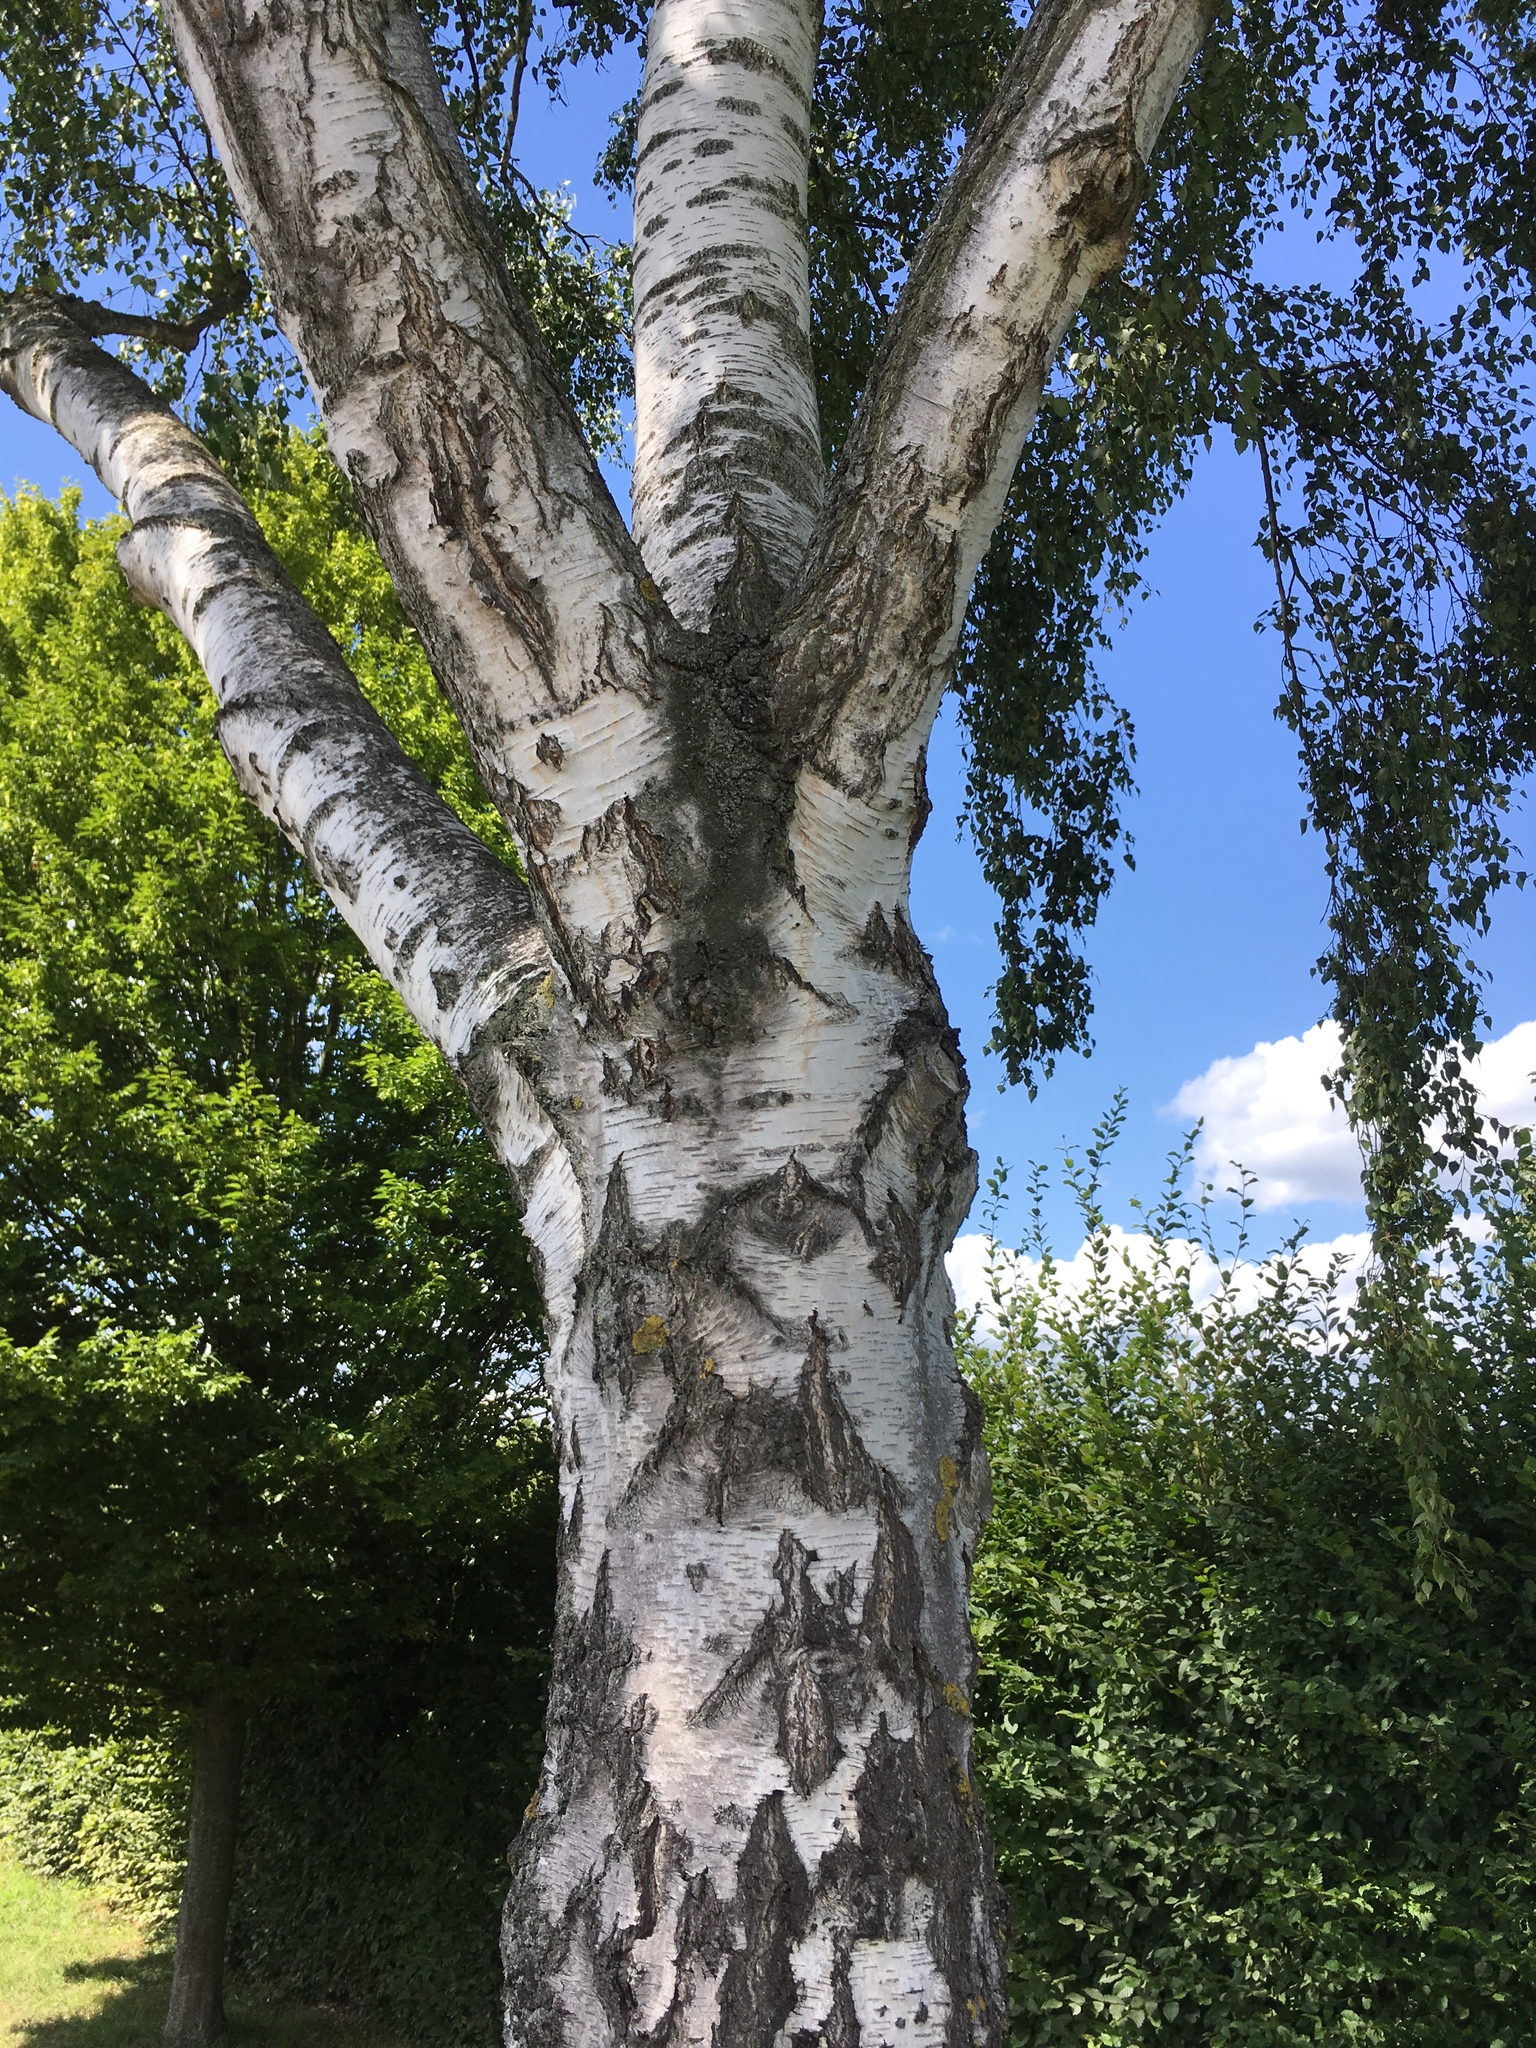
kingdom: Plantae
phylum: Tracheophyta
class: Magnoliopsida
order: Fagales
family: Betulaceae
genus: Betula
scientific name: Betula pendula
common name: Silver birch
